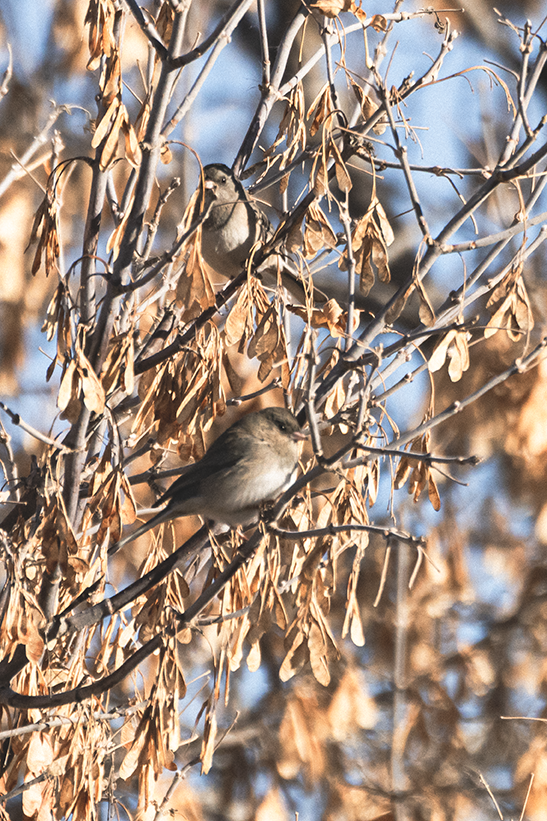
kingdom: Animalia
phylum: Chordata
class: Aves
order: Passeriformes
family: Passerellidae
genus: Junco
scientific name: Junco hyemalis
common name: Dark-eyed junco
